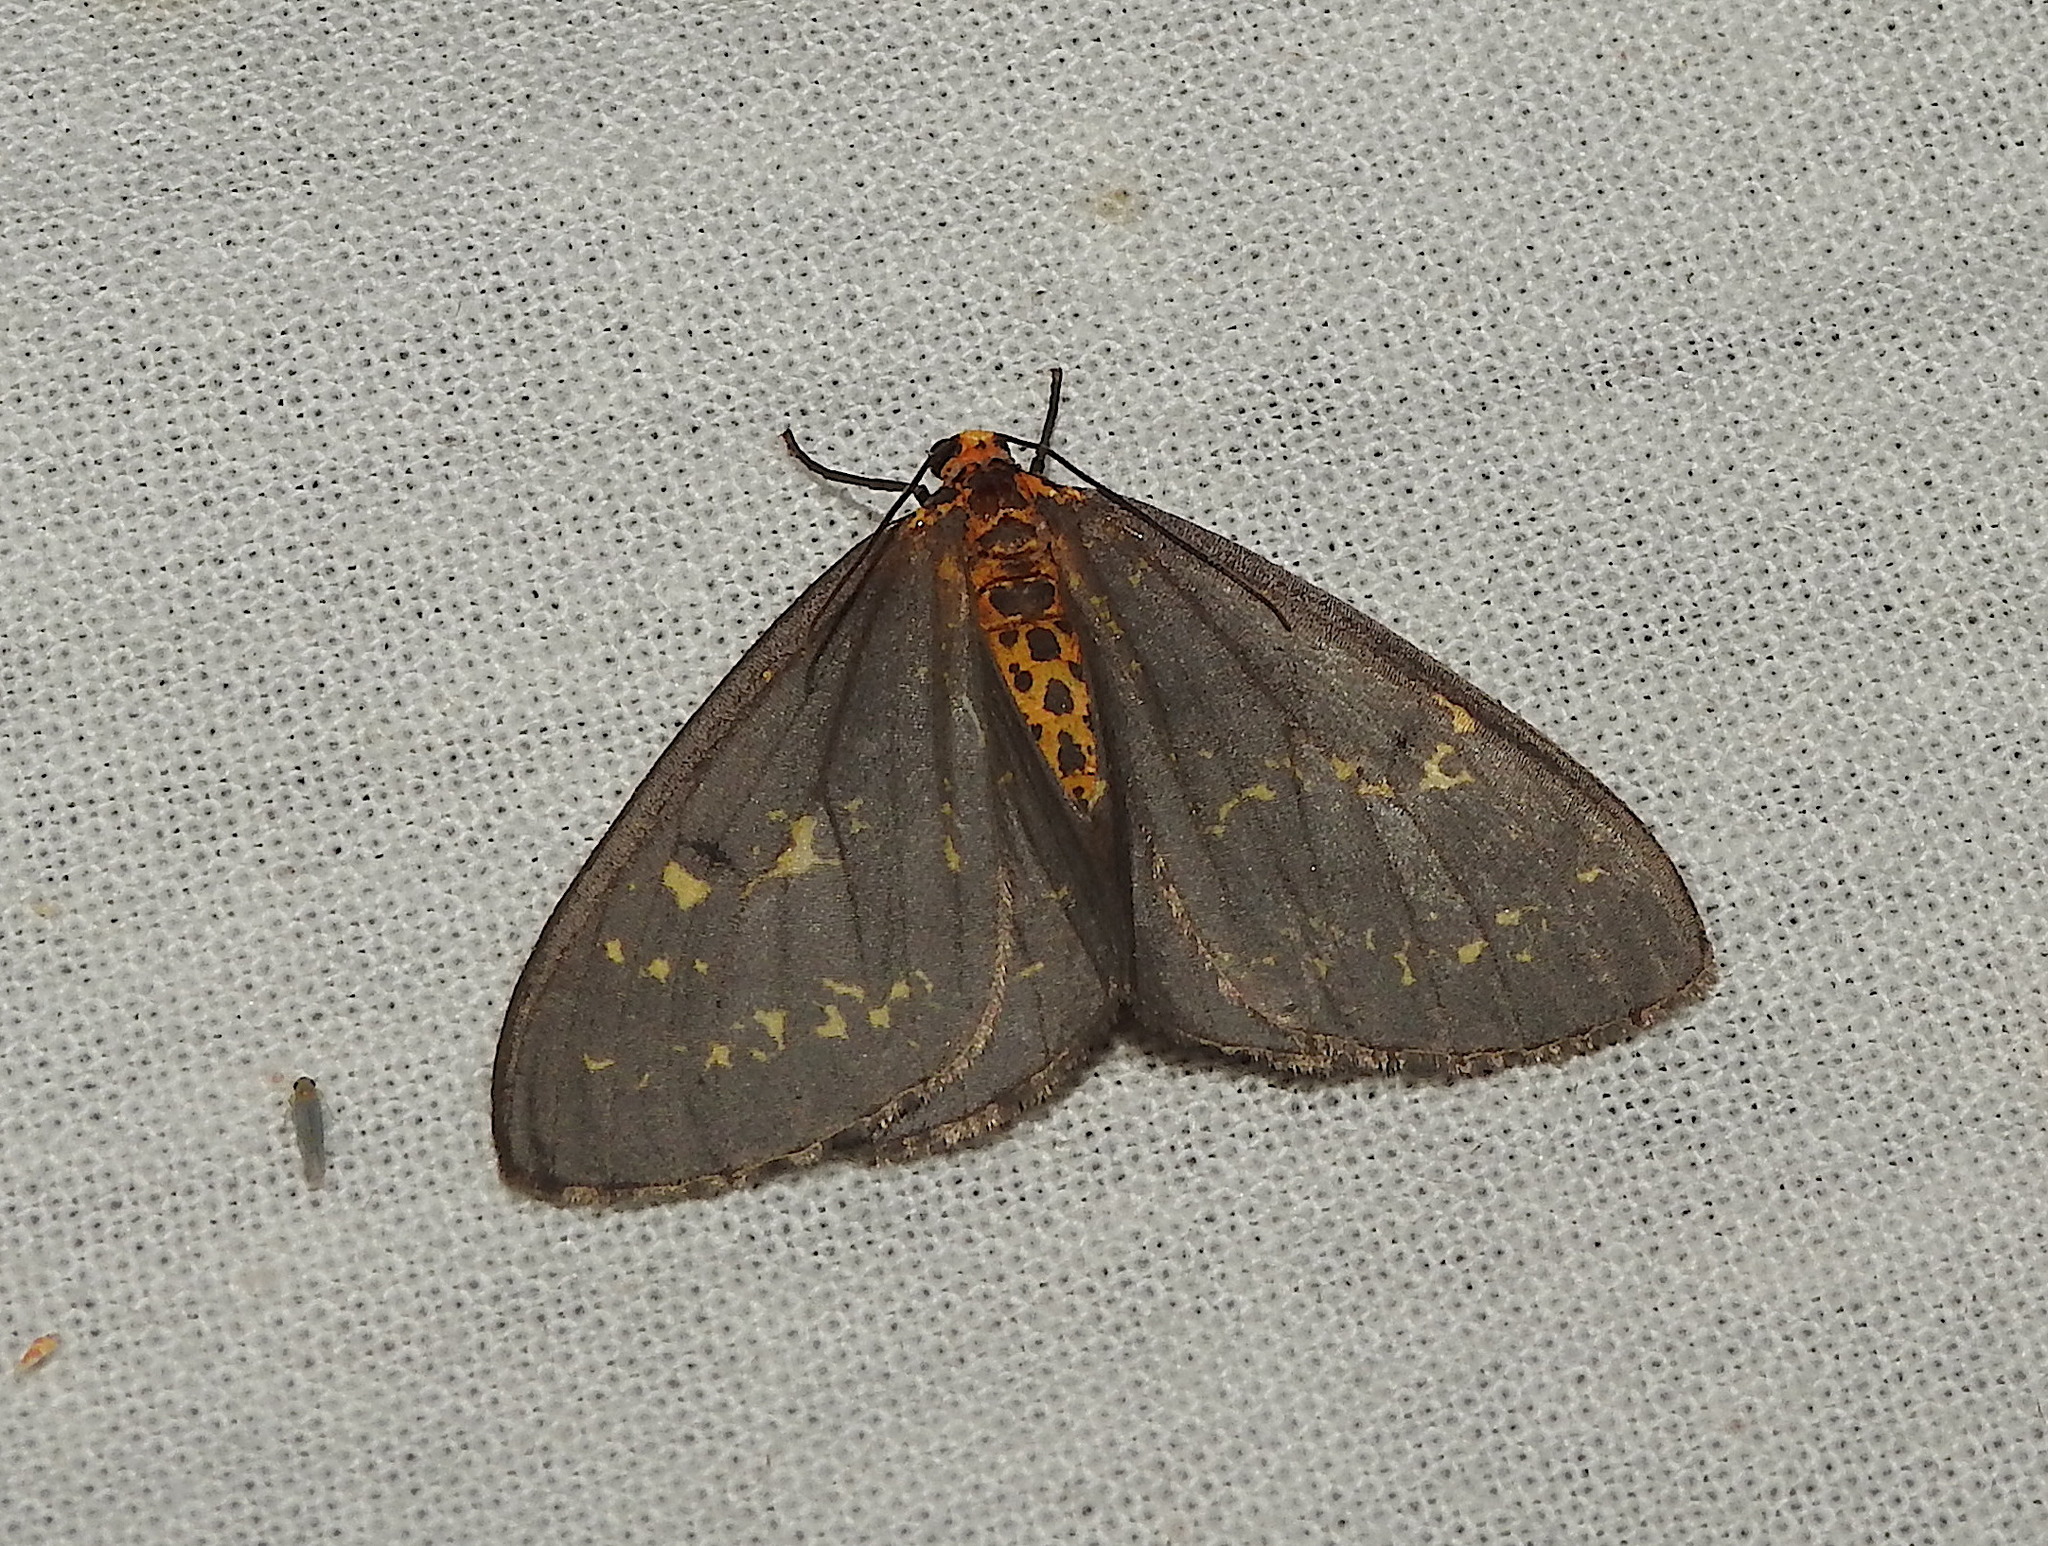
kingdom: Animalia
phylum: Arthropoda
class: Insecta
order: Lepidoptera
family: Geometridae
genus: Abraxas
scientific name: Abraxas poliaria
